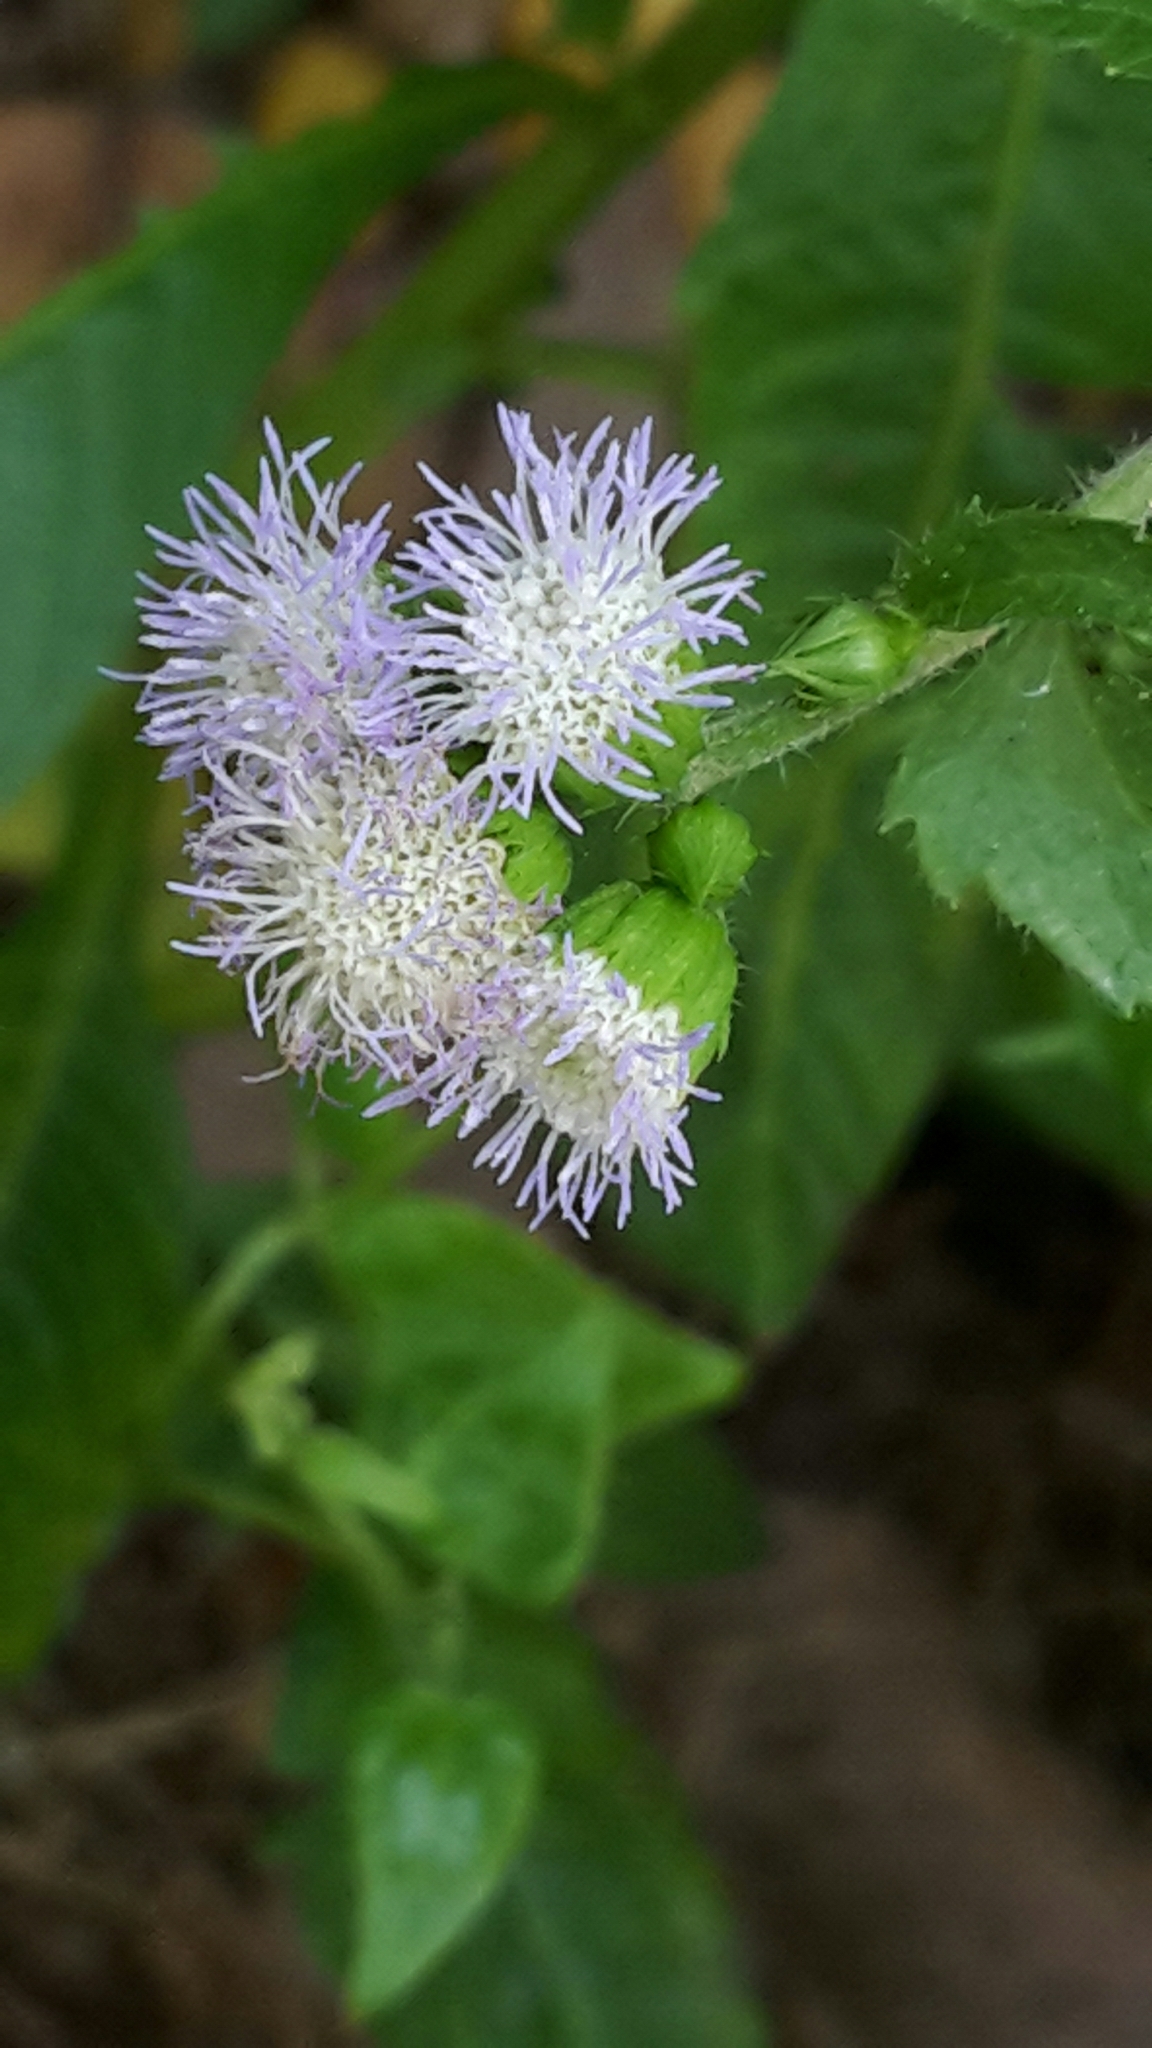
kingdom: Plantae
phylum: Tracheophyta
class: Magnoliopsida
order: Asterales
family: Asteraceae
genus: Ageratum
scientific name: Ageratum conyzoides
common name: Tropical whiteweed
